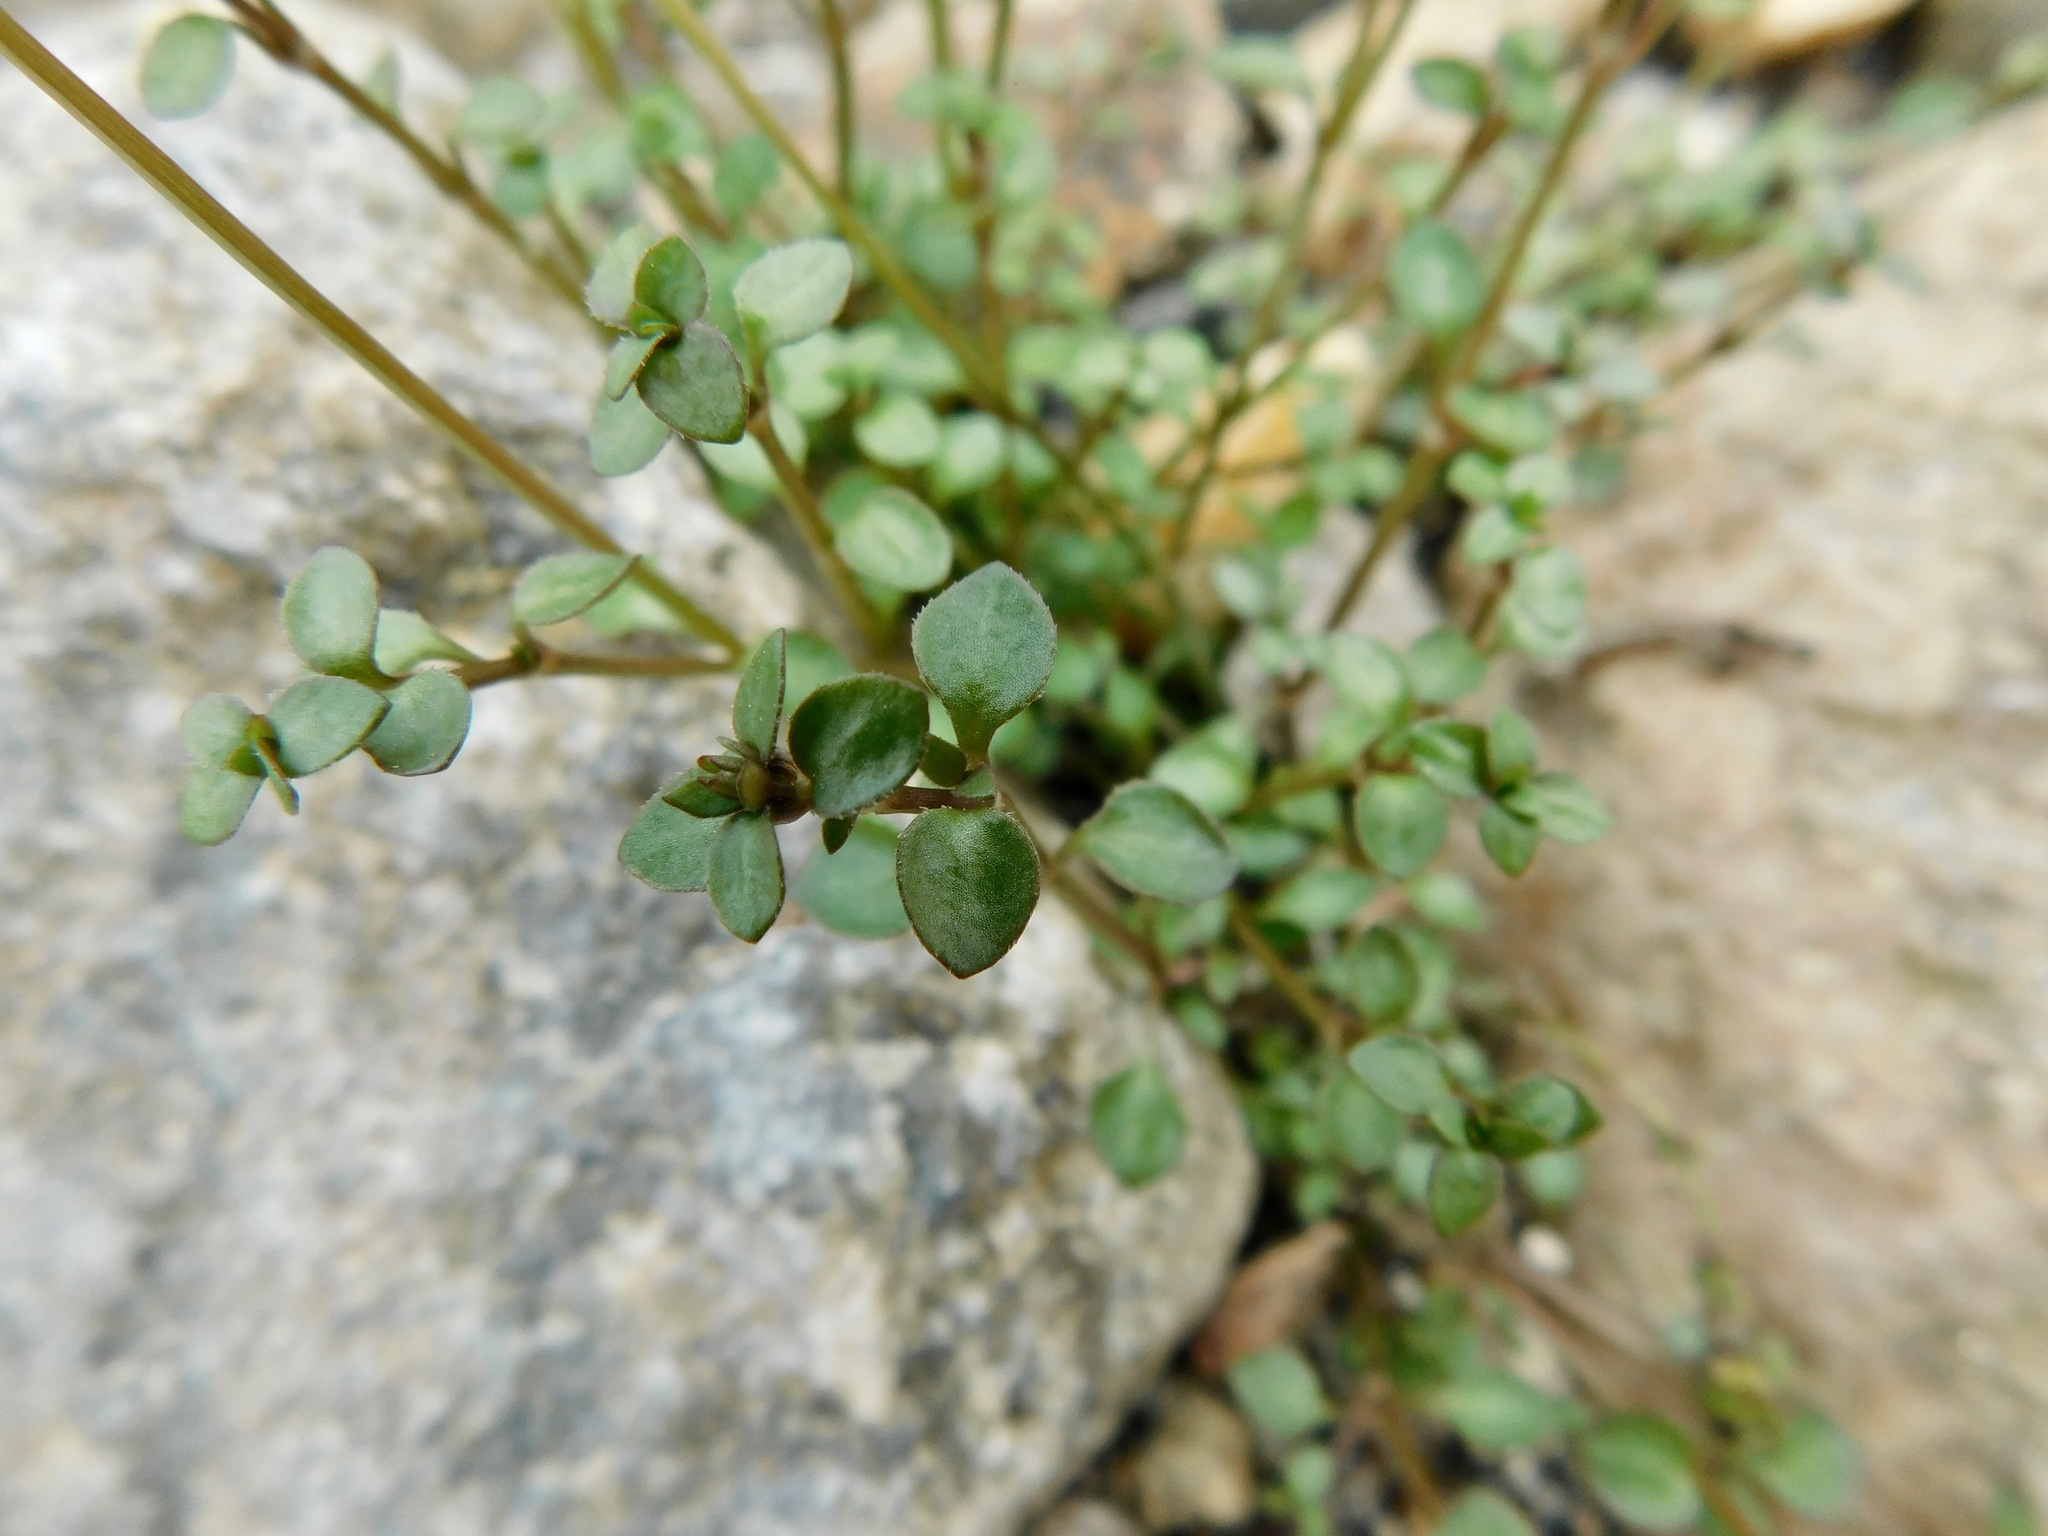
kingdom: Plantae
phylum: Tracheophyta
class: Magnoliopsida
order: Gentianales
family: Rubiaceae
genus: Houstonia
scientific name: Houstonia serpyllifolia
